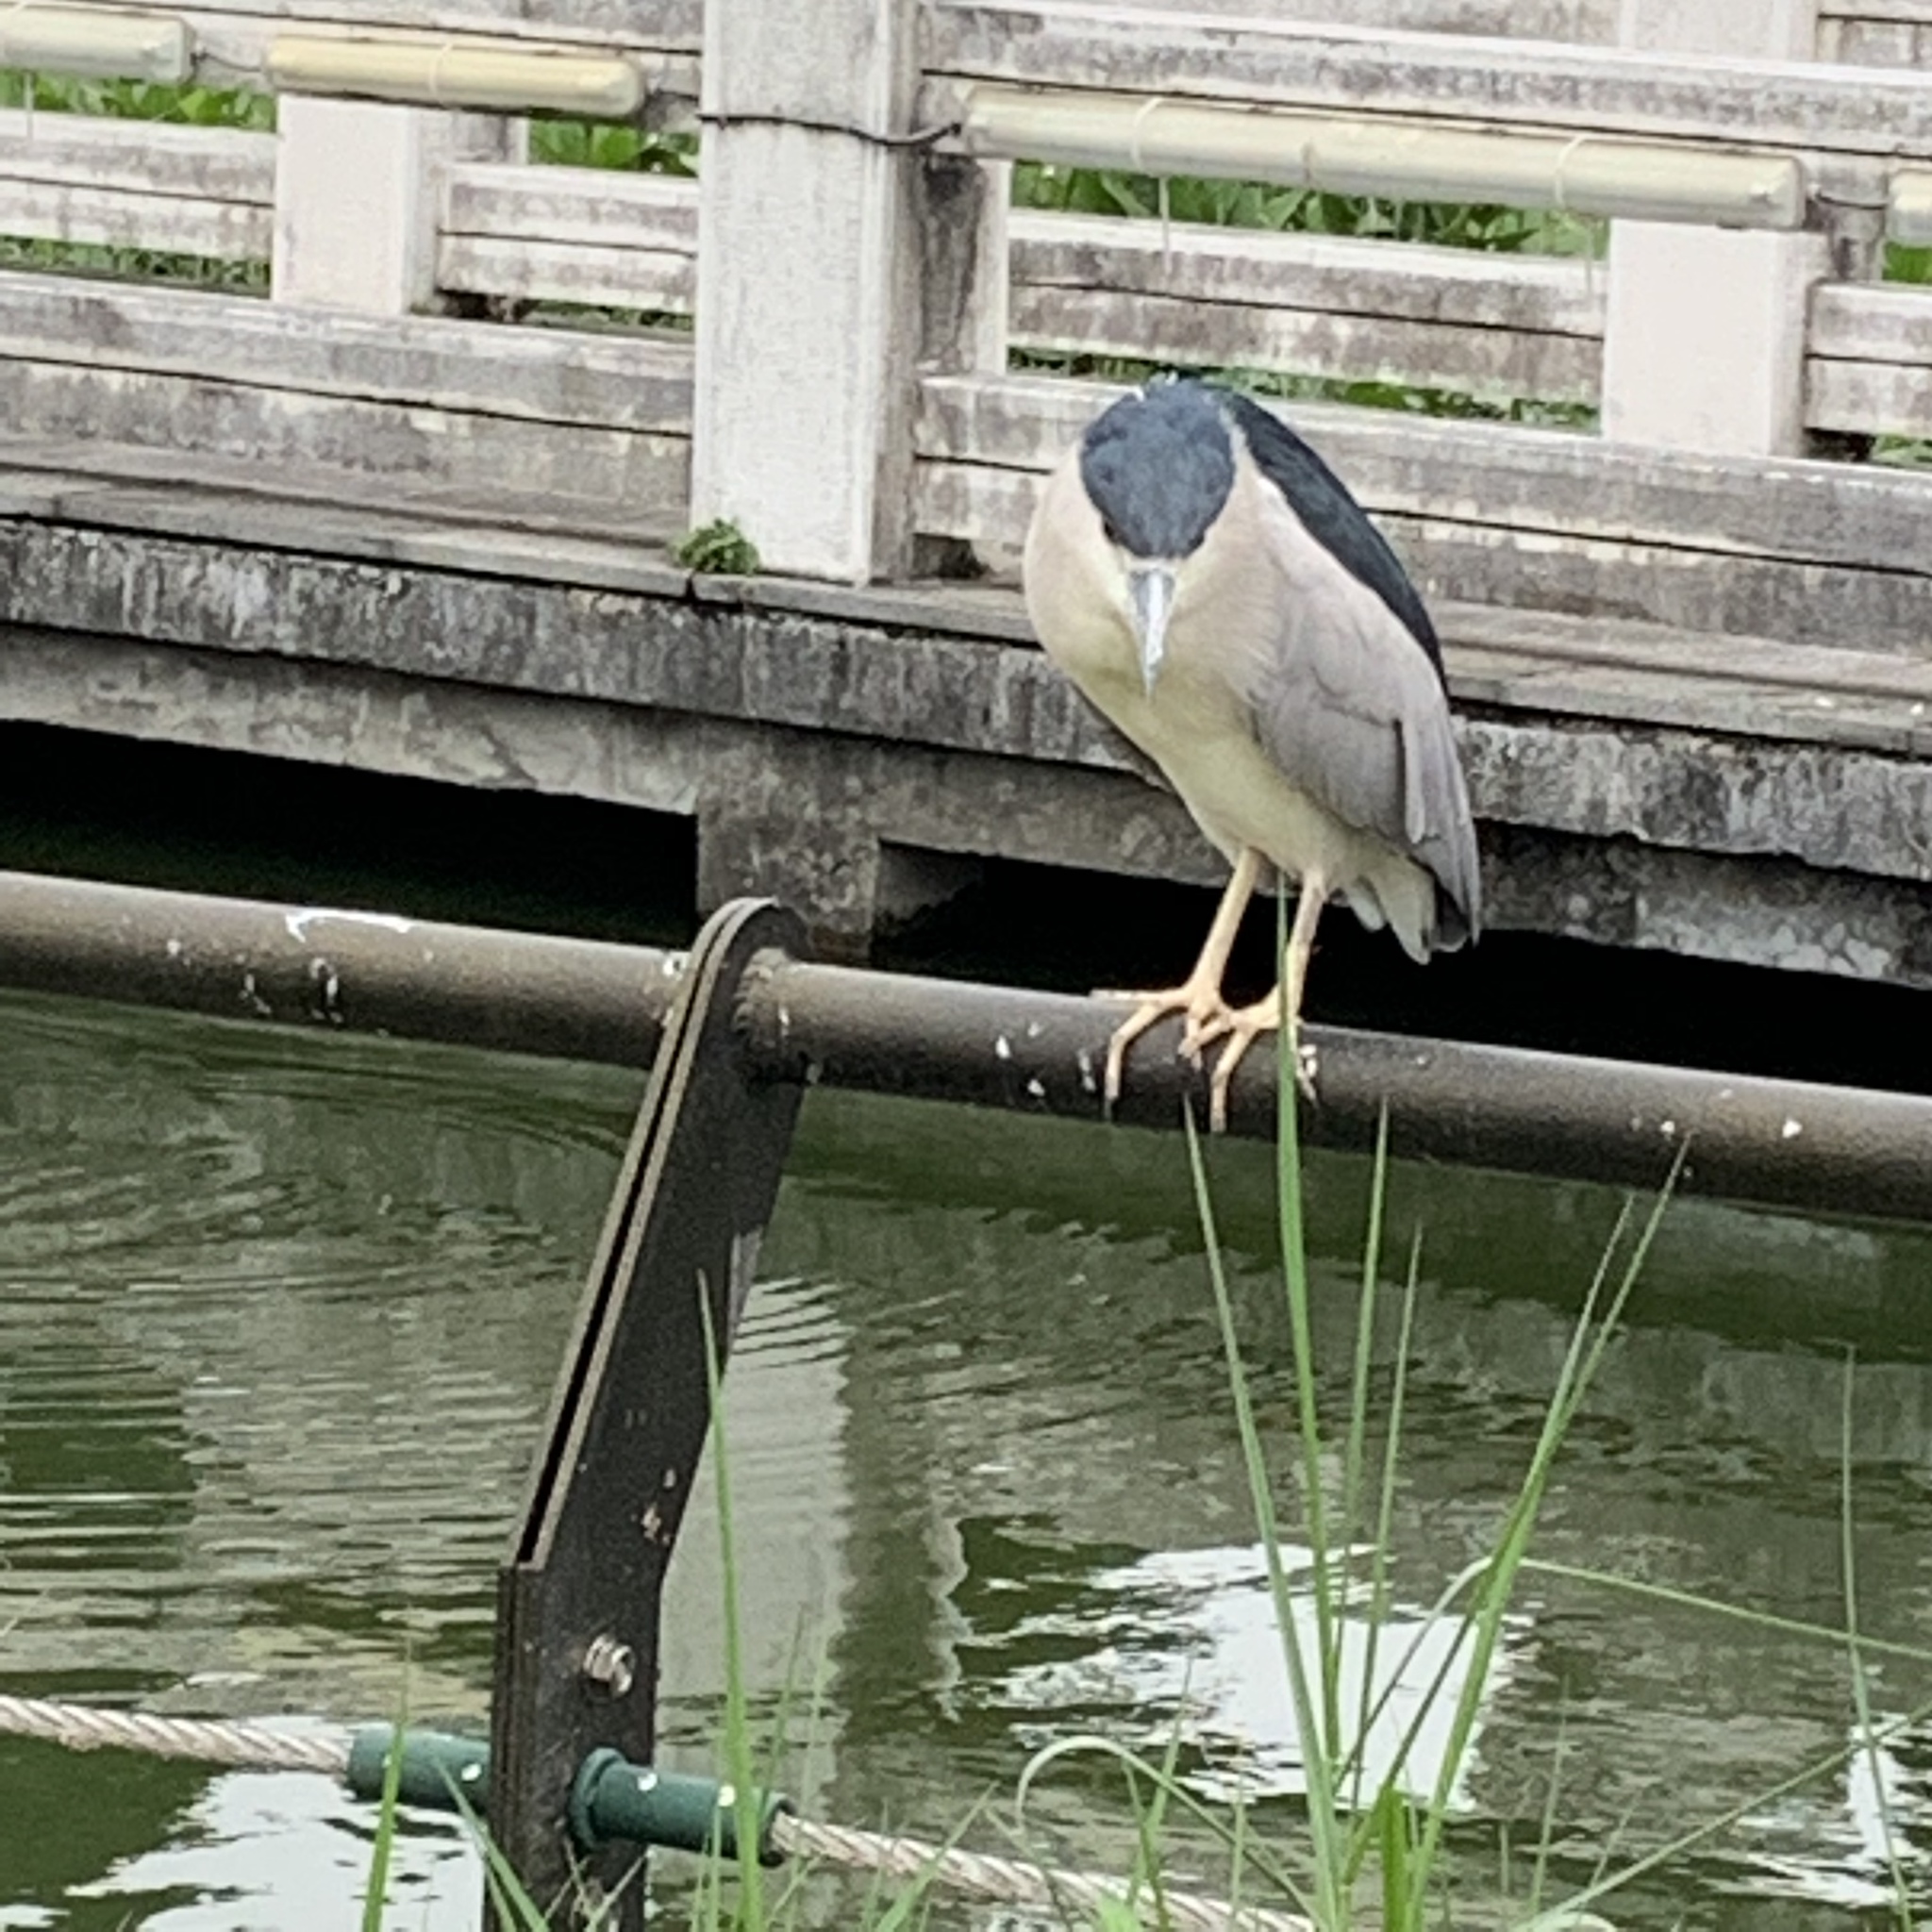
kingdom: Animalia
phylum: Chordata
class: Aves
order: Pelecaniformes
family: Ardeidae
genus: Nycticorax
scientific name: Nycticorax nycticorax
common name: Black-crowned night heron
